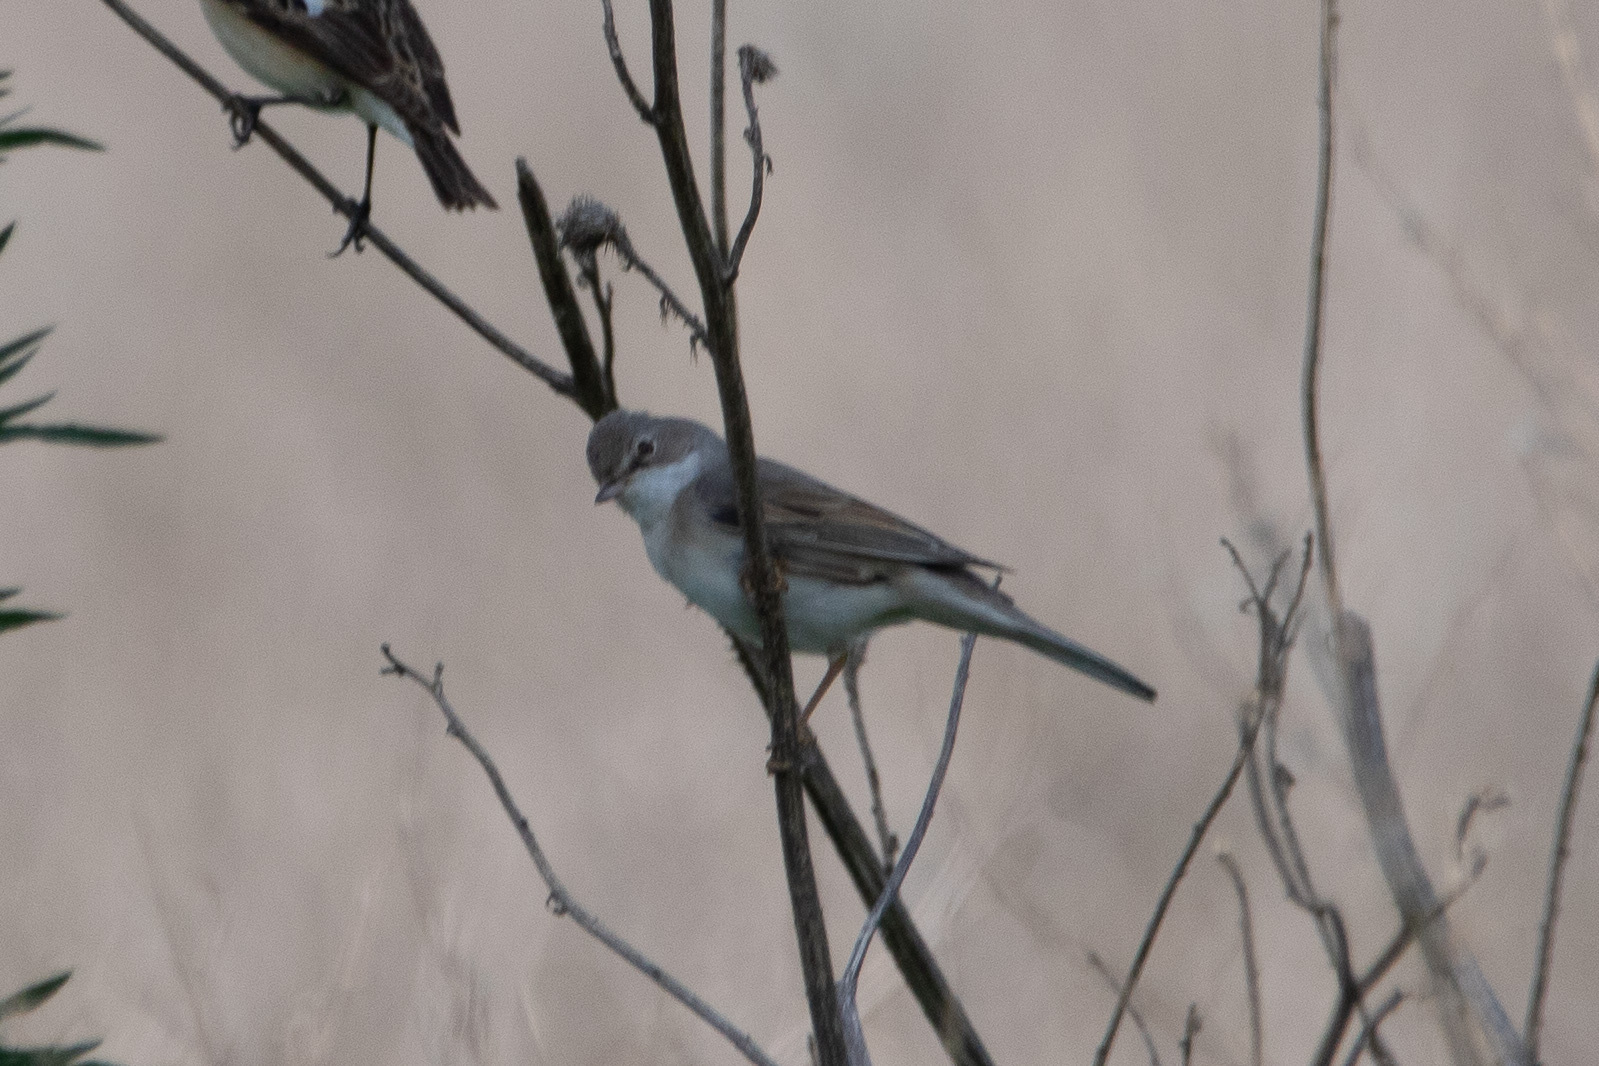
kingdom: Animalia
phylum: Chordata
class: Aves
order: Passeriformes
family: Sylviidae
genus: Sylvia
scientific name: Sylvia communis
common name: Common whitethroat
